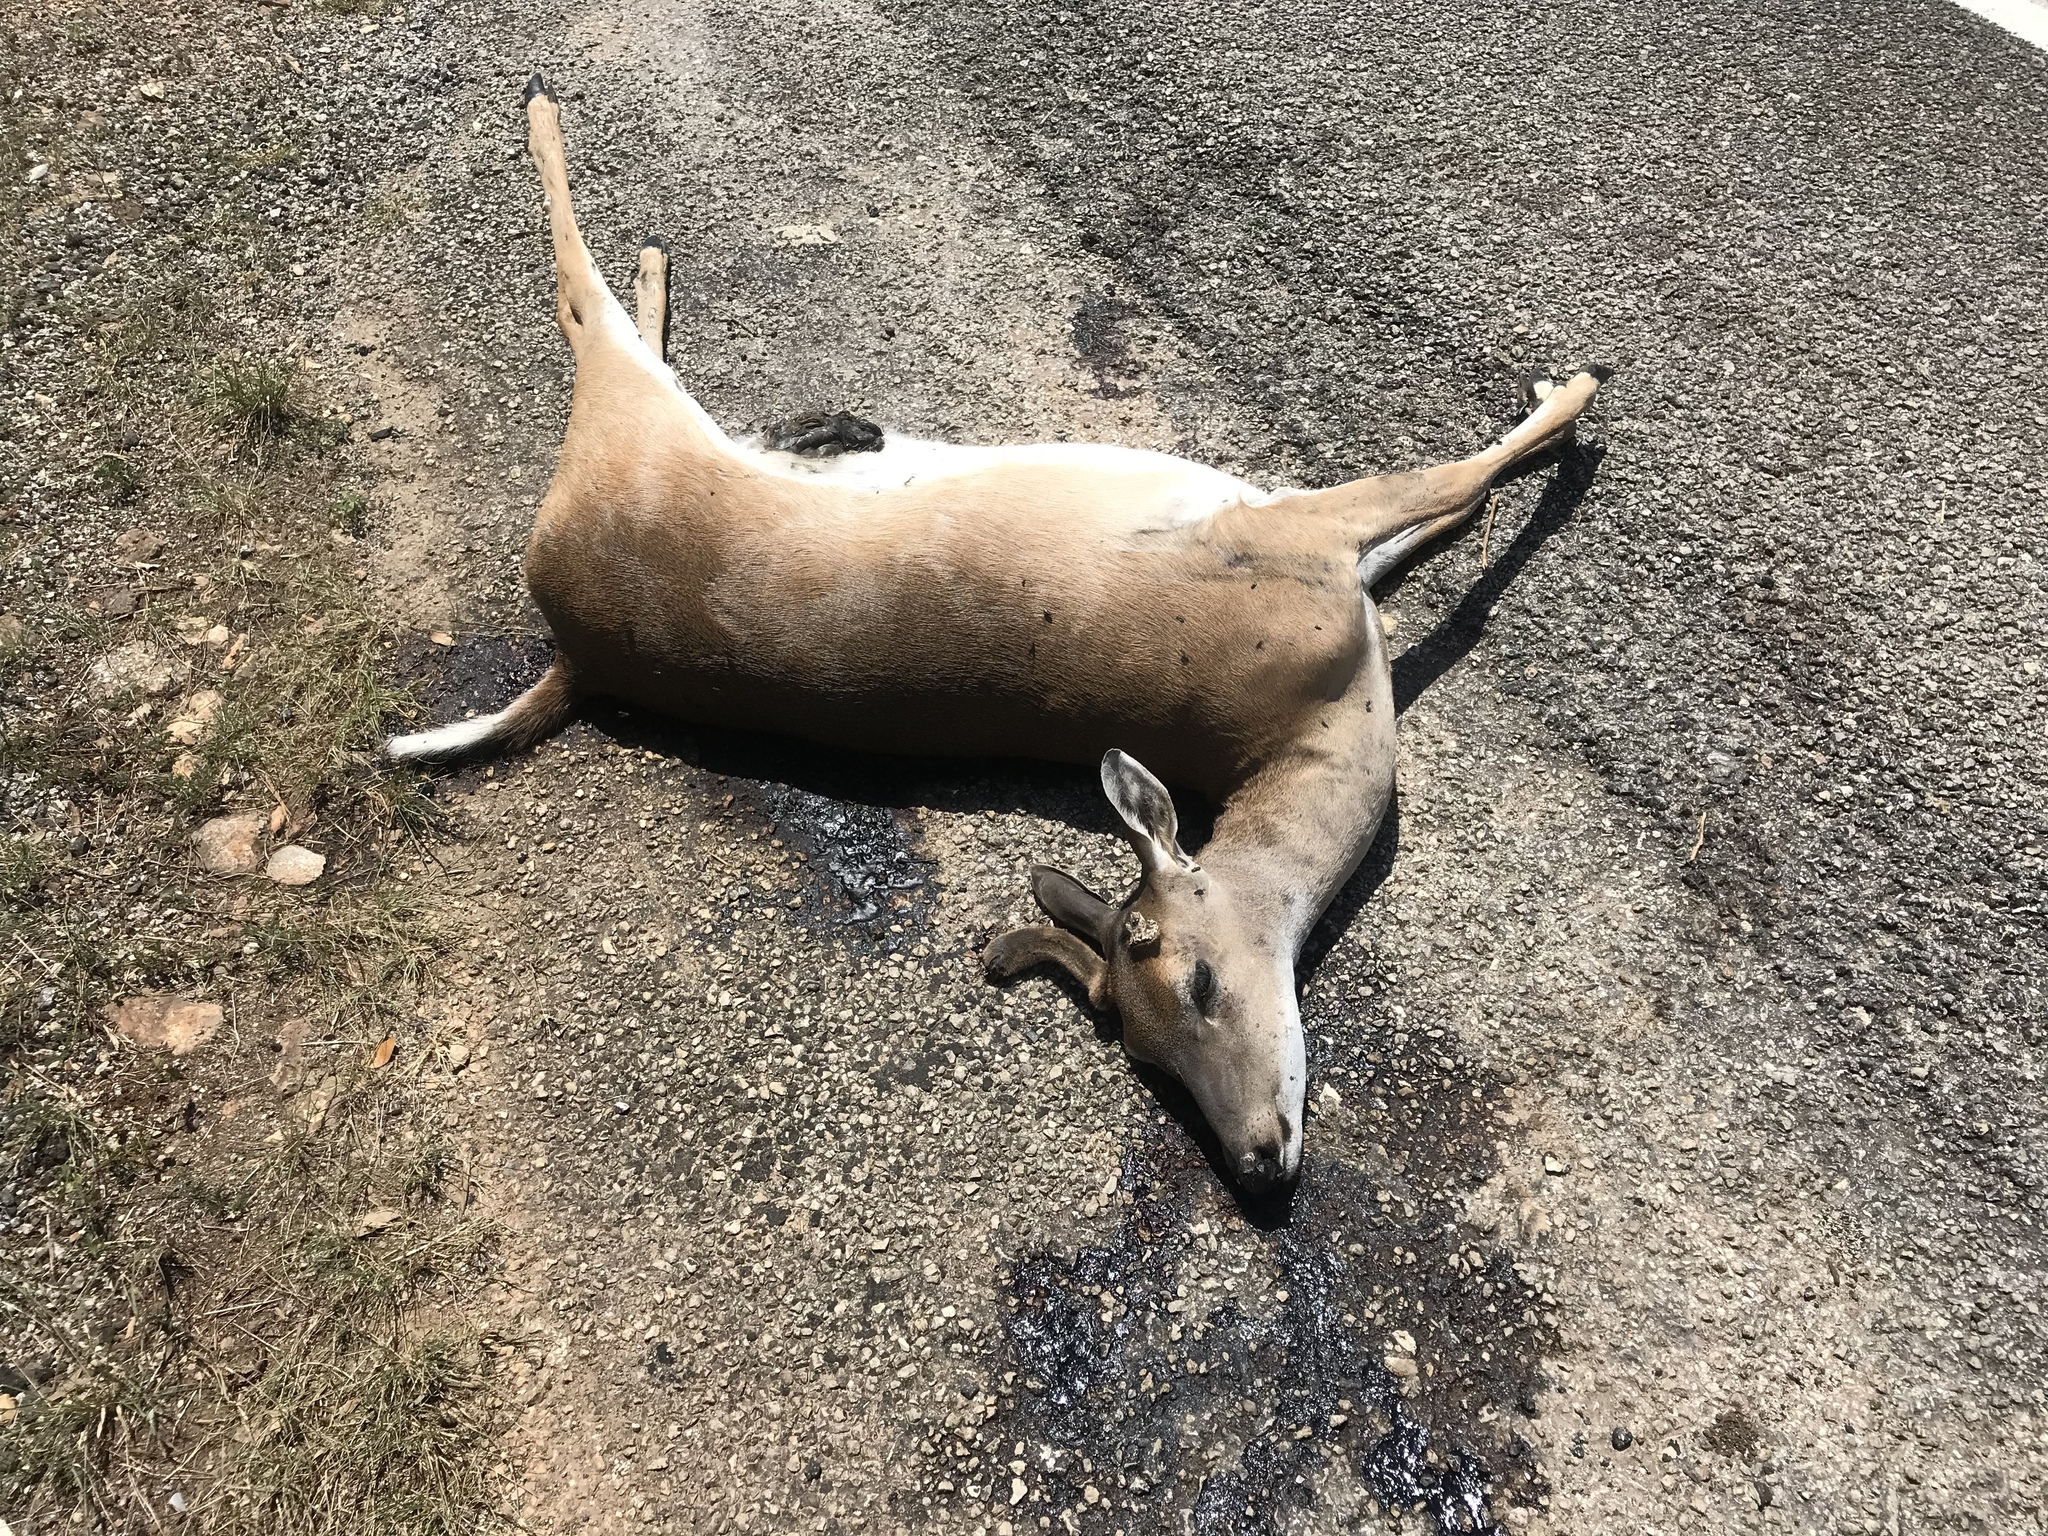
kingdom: Animalia
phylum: Chordata
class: Mammalia
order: Artiodactyla
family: Cervidae
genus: Odocoileus
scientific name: Odocoileus virginianus
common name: White-tailed deer
